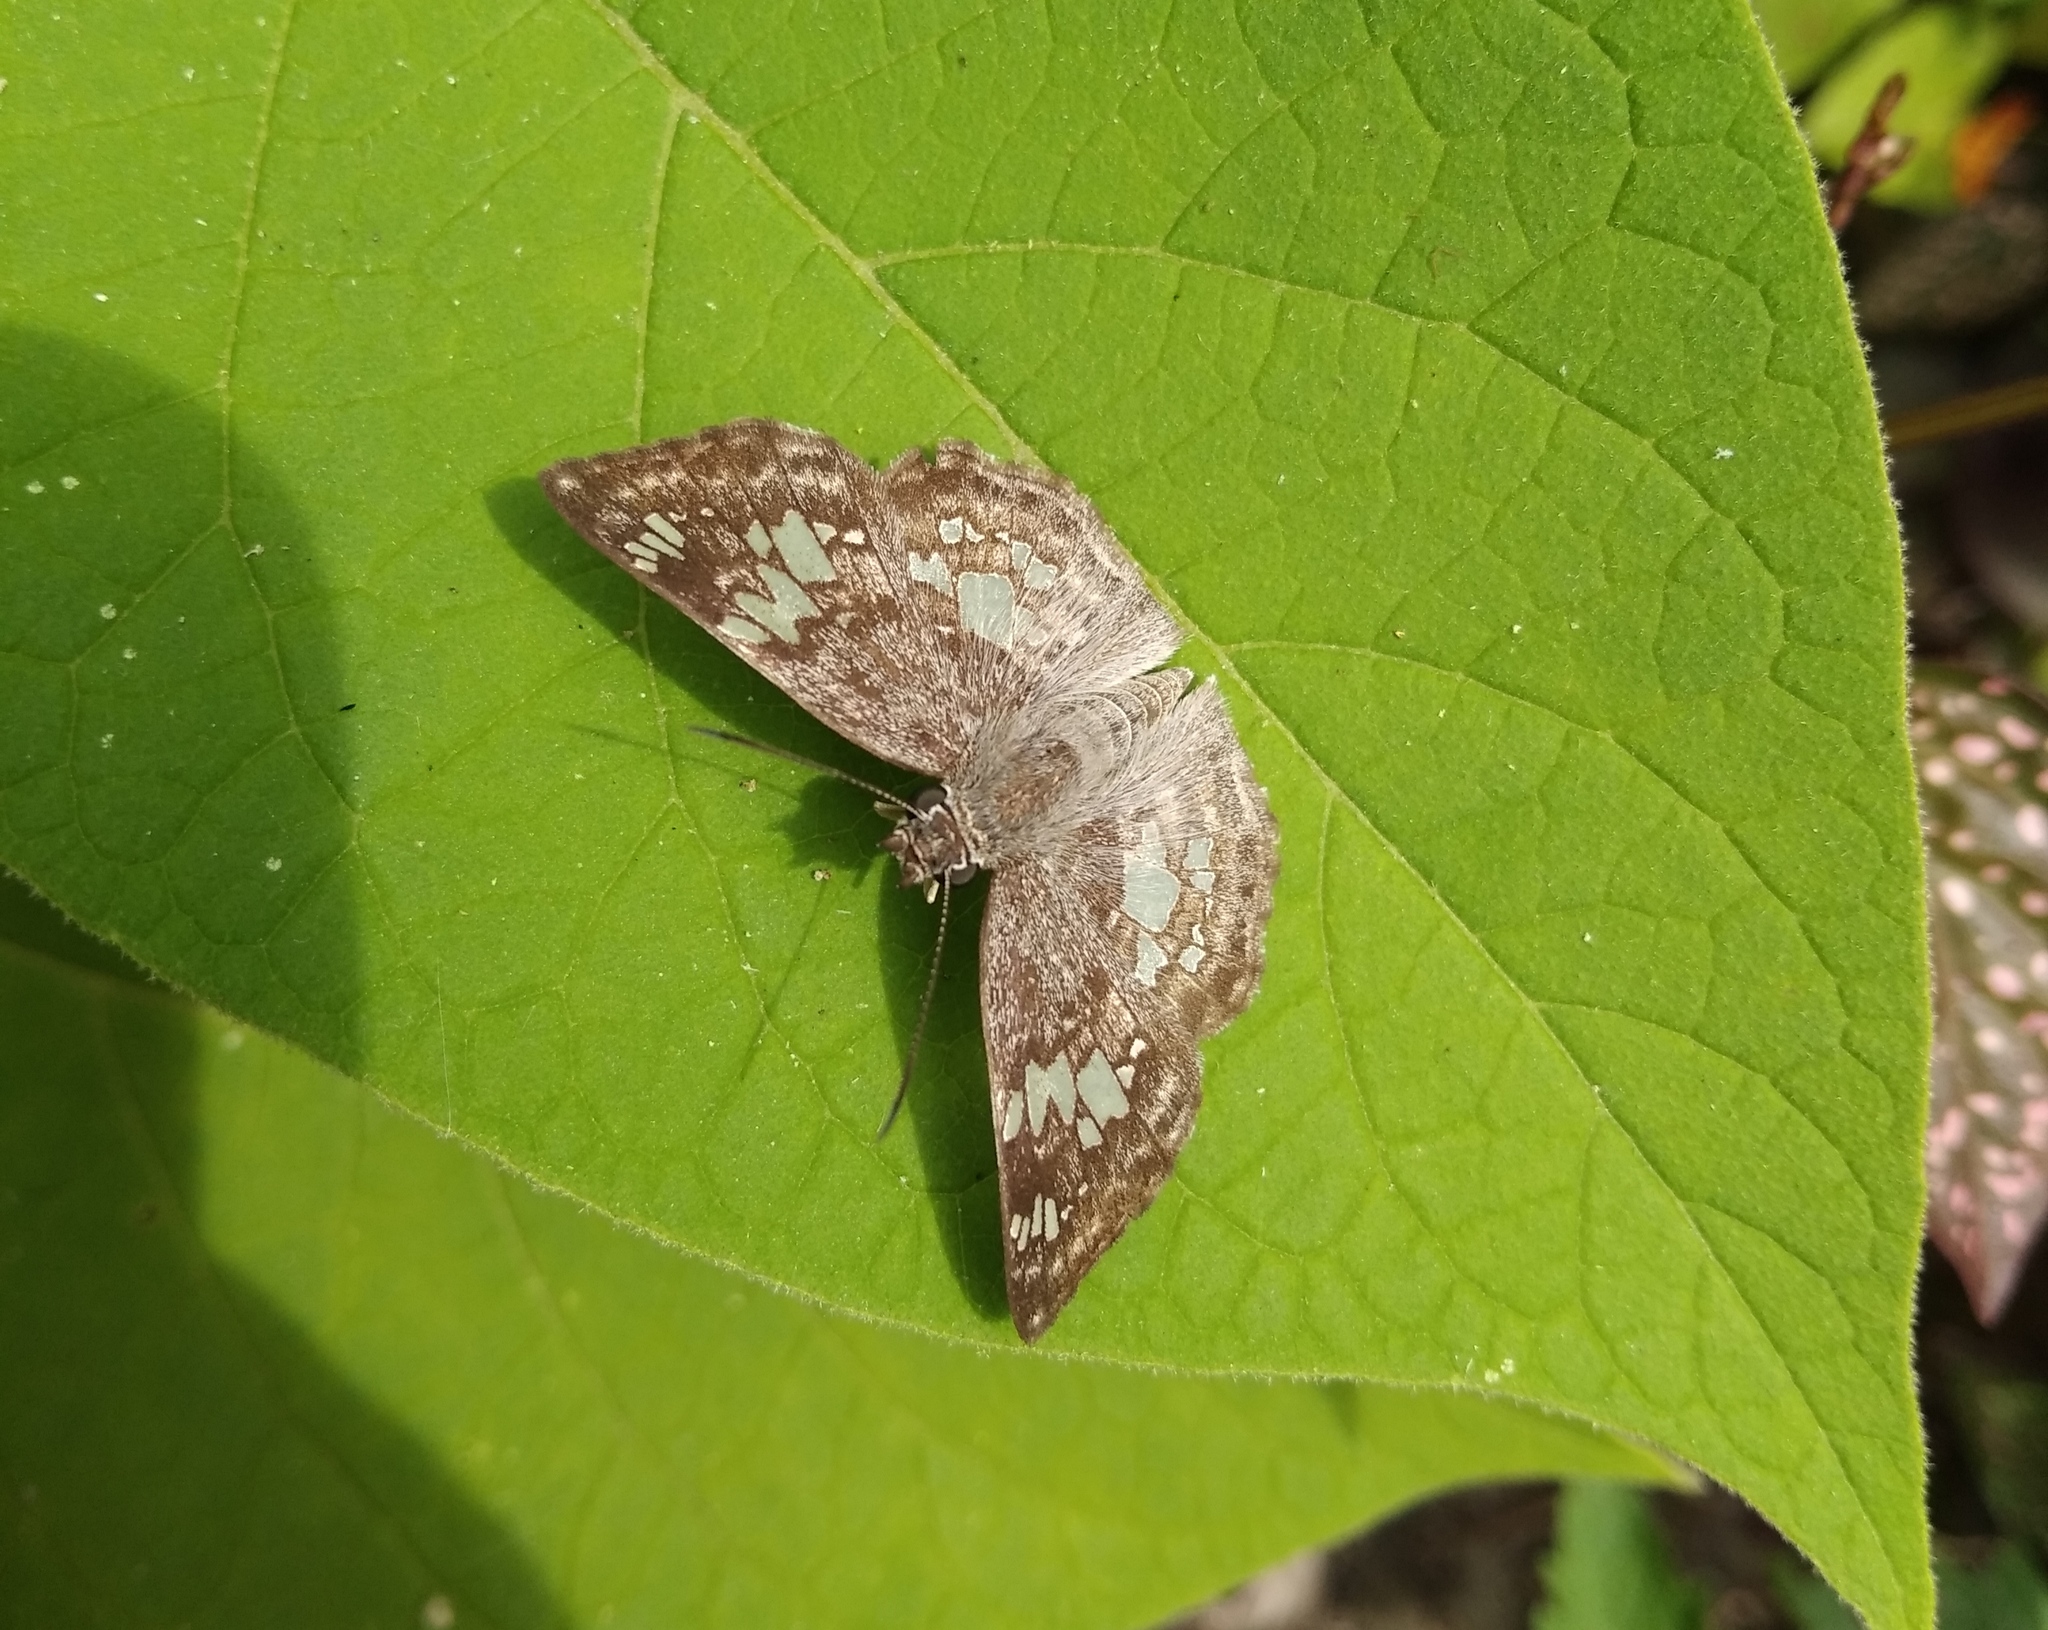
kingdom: Animalia
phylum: Arthropoda
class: Insecta
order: Lepidoptera
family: Hesperiidae
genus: Xenophanes
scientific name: Xenophanes tryxus
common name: Glassy-winged skipper
